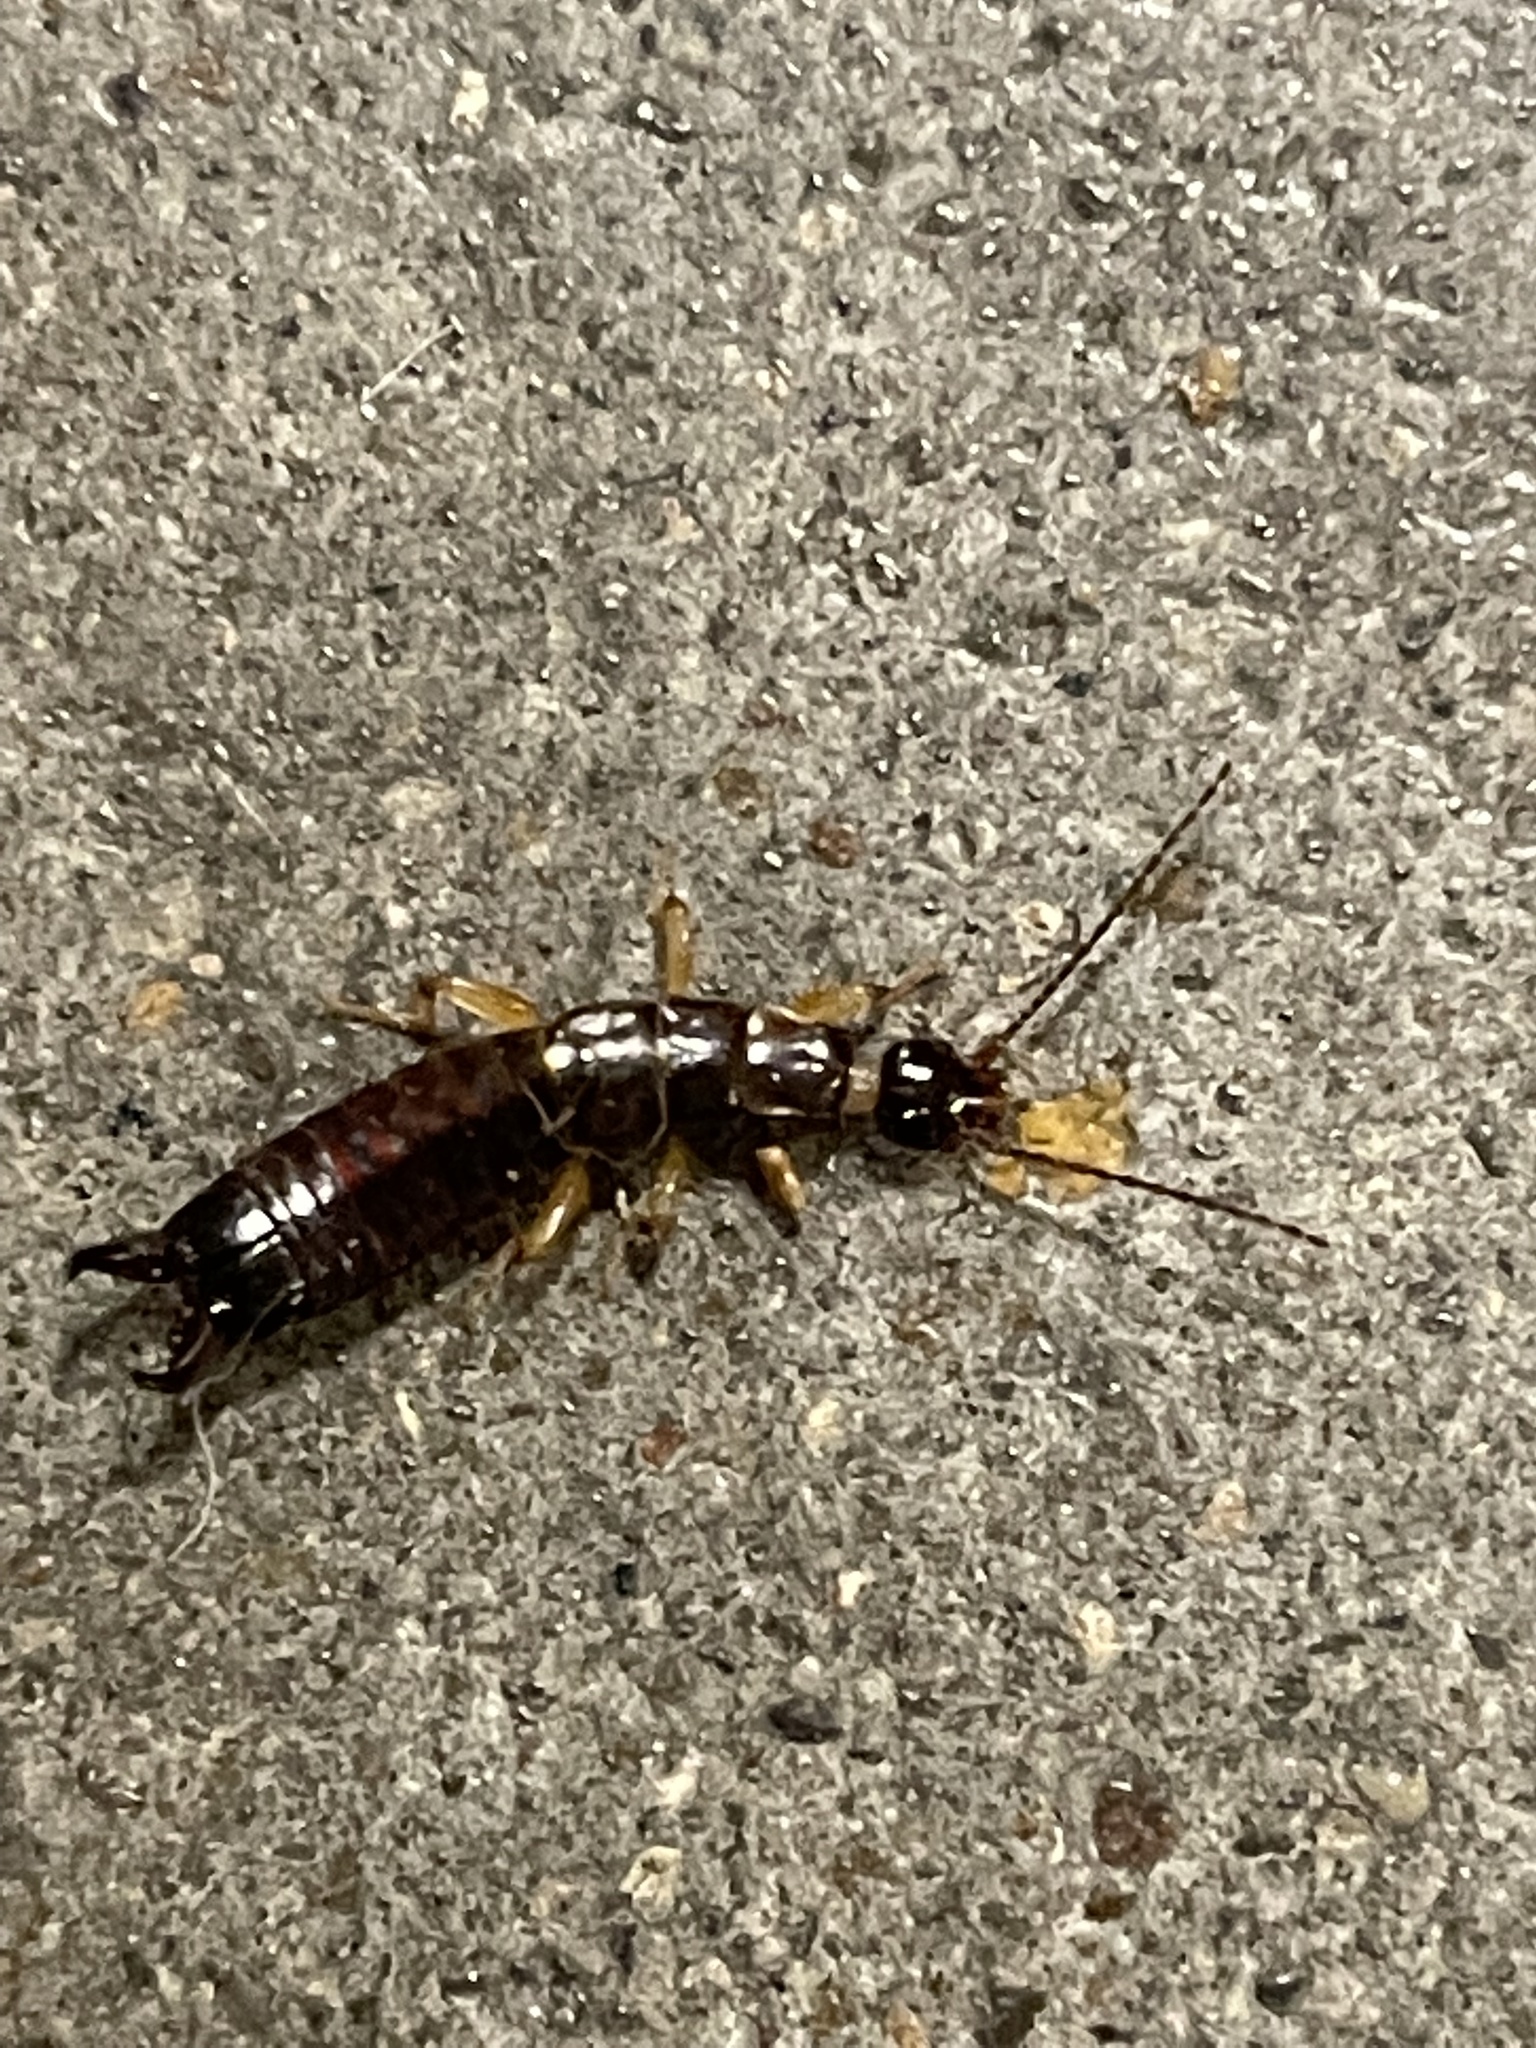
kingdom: Animalia
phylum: Arthropoda
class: Insecta
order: Dermaptera
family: Anisolabididae
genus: Euborellia
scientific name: Euborellia annulipes
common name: Ringlegged earwig
